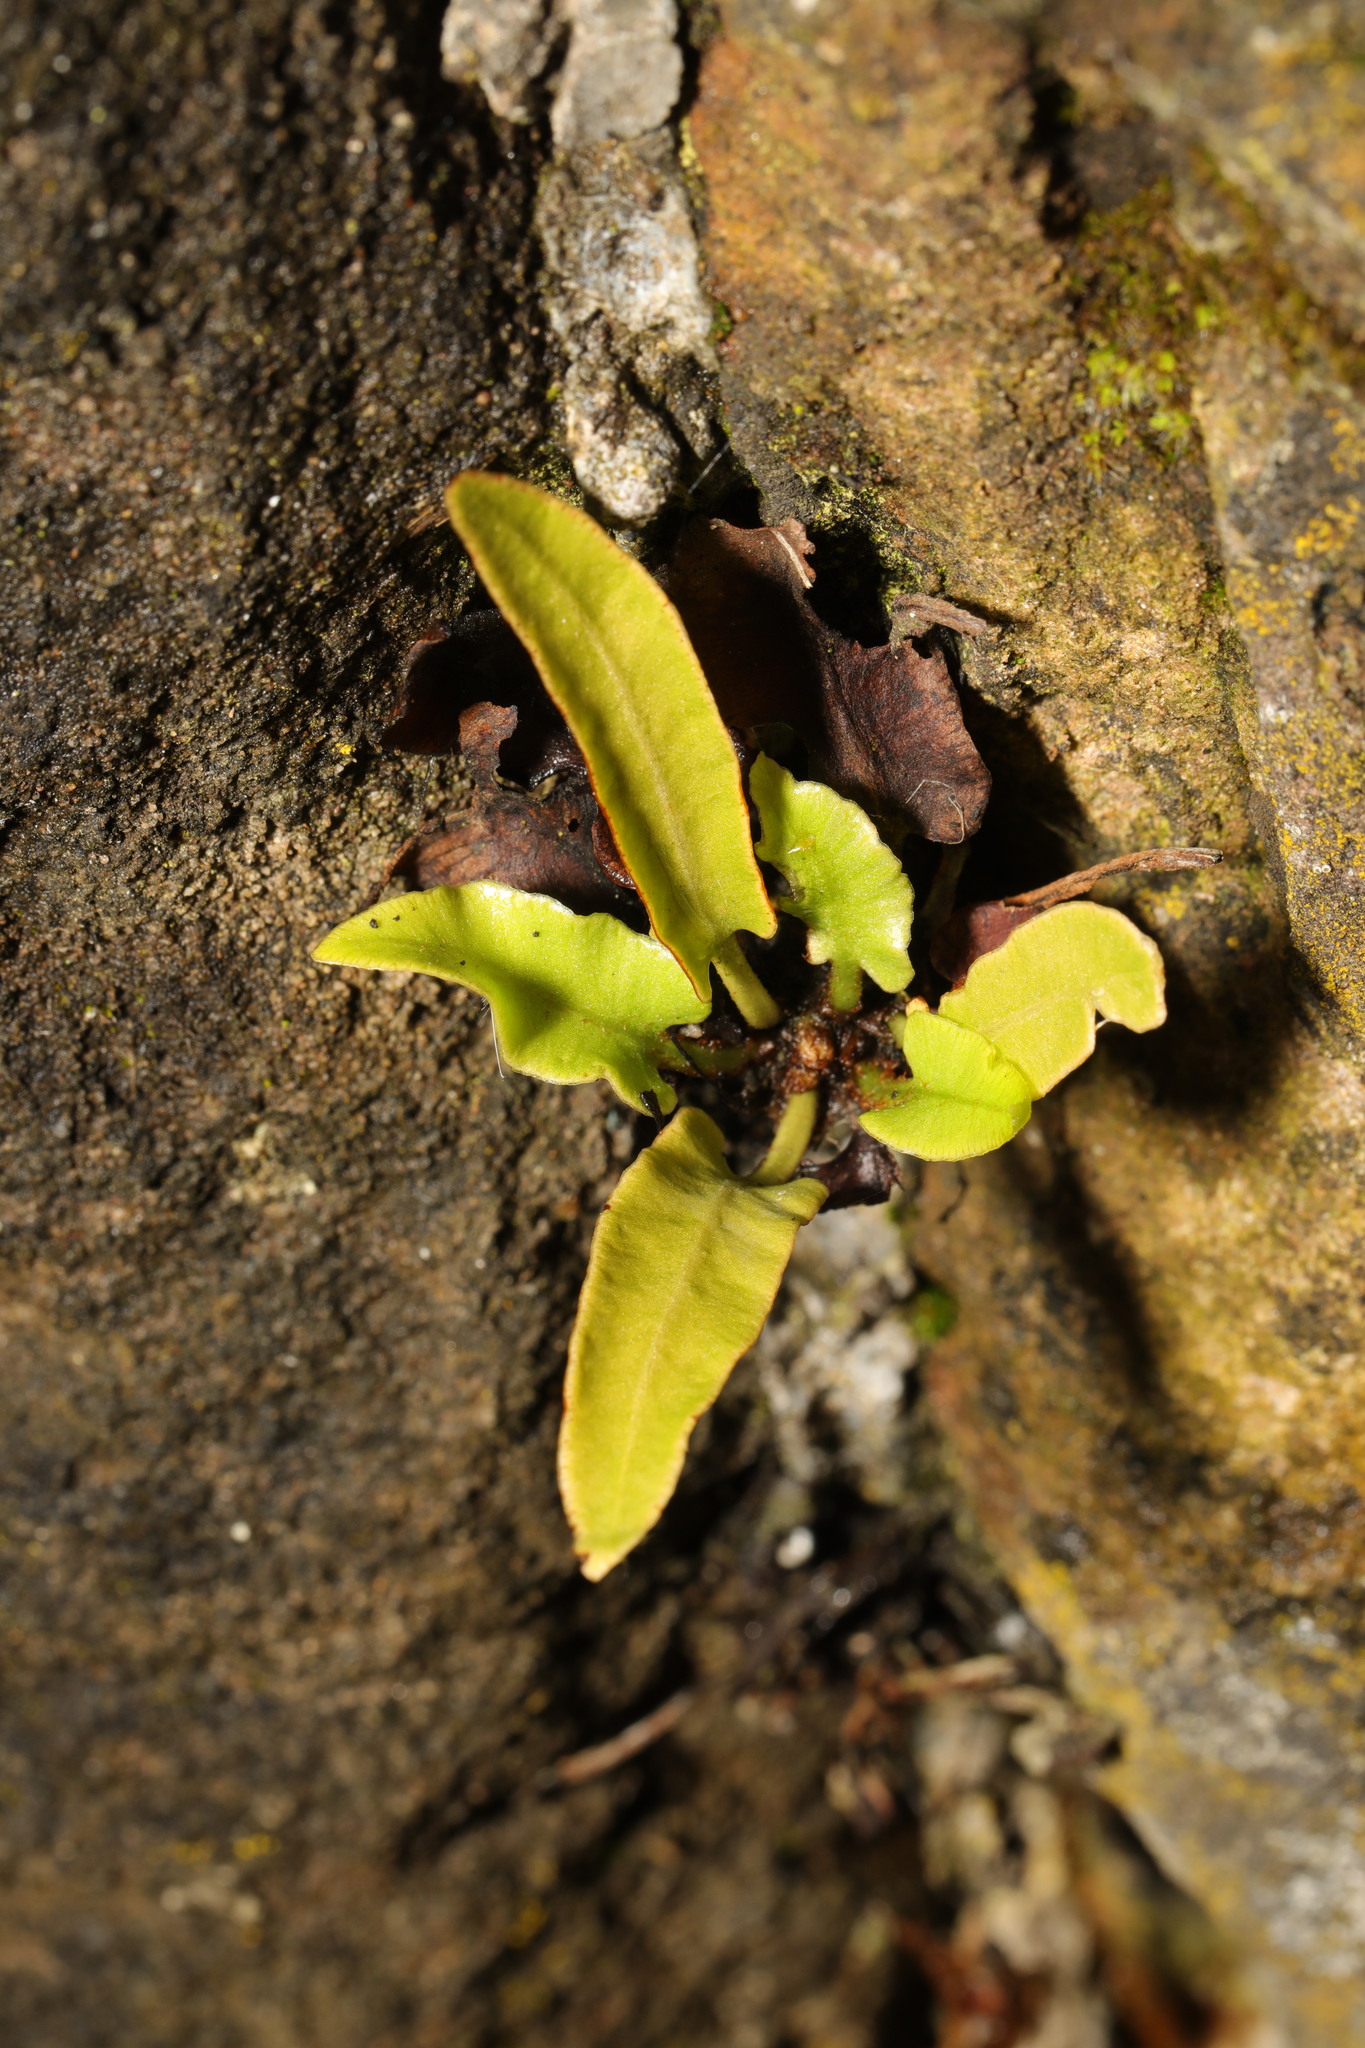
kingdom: Plantae
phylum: Tracheophyta
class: Polypodiopsida
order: Polypodiales
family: Aspleniaceae
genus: Asplenium
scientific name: Asplenium scolopendrium
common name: Hart's-tongue fern
